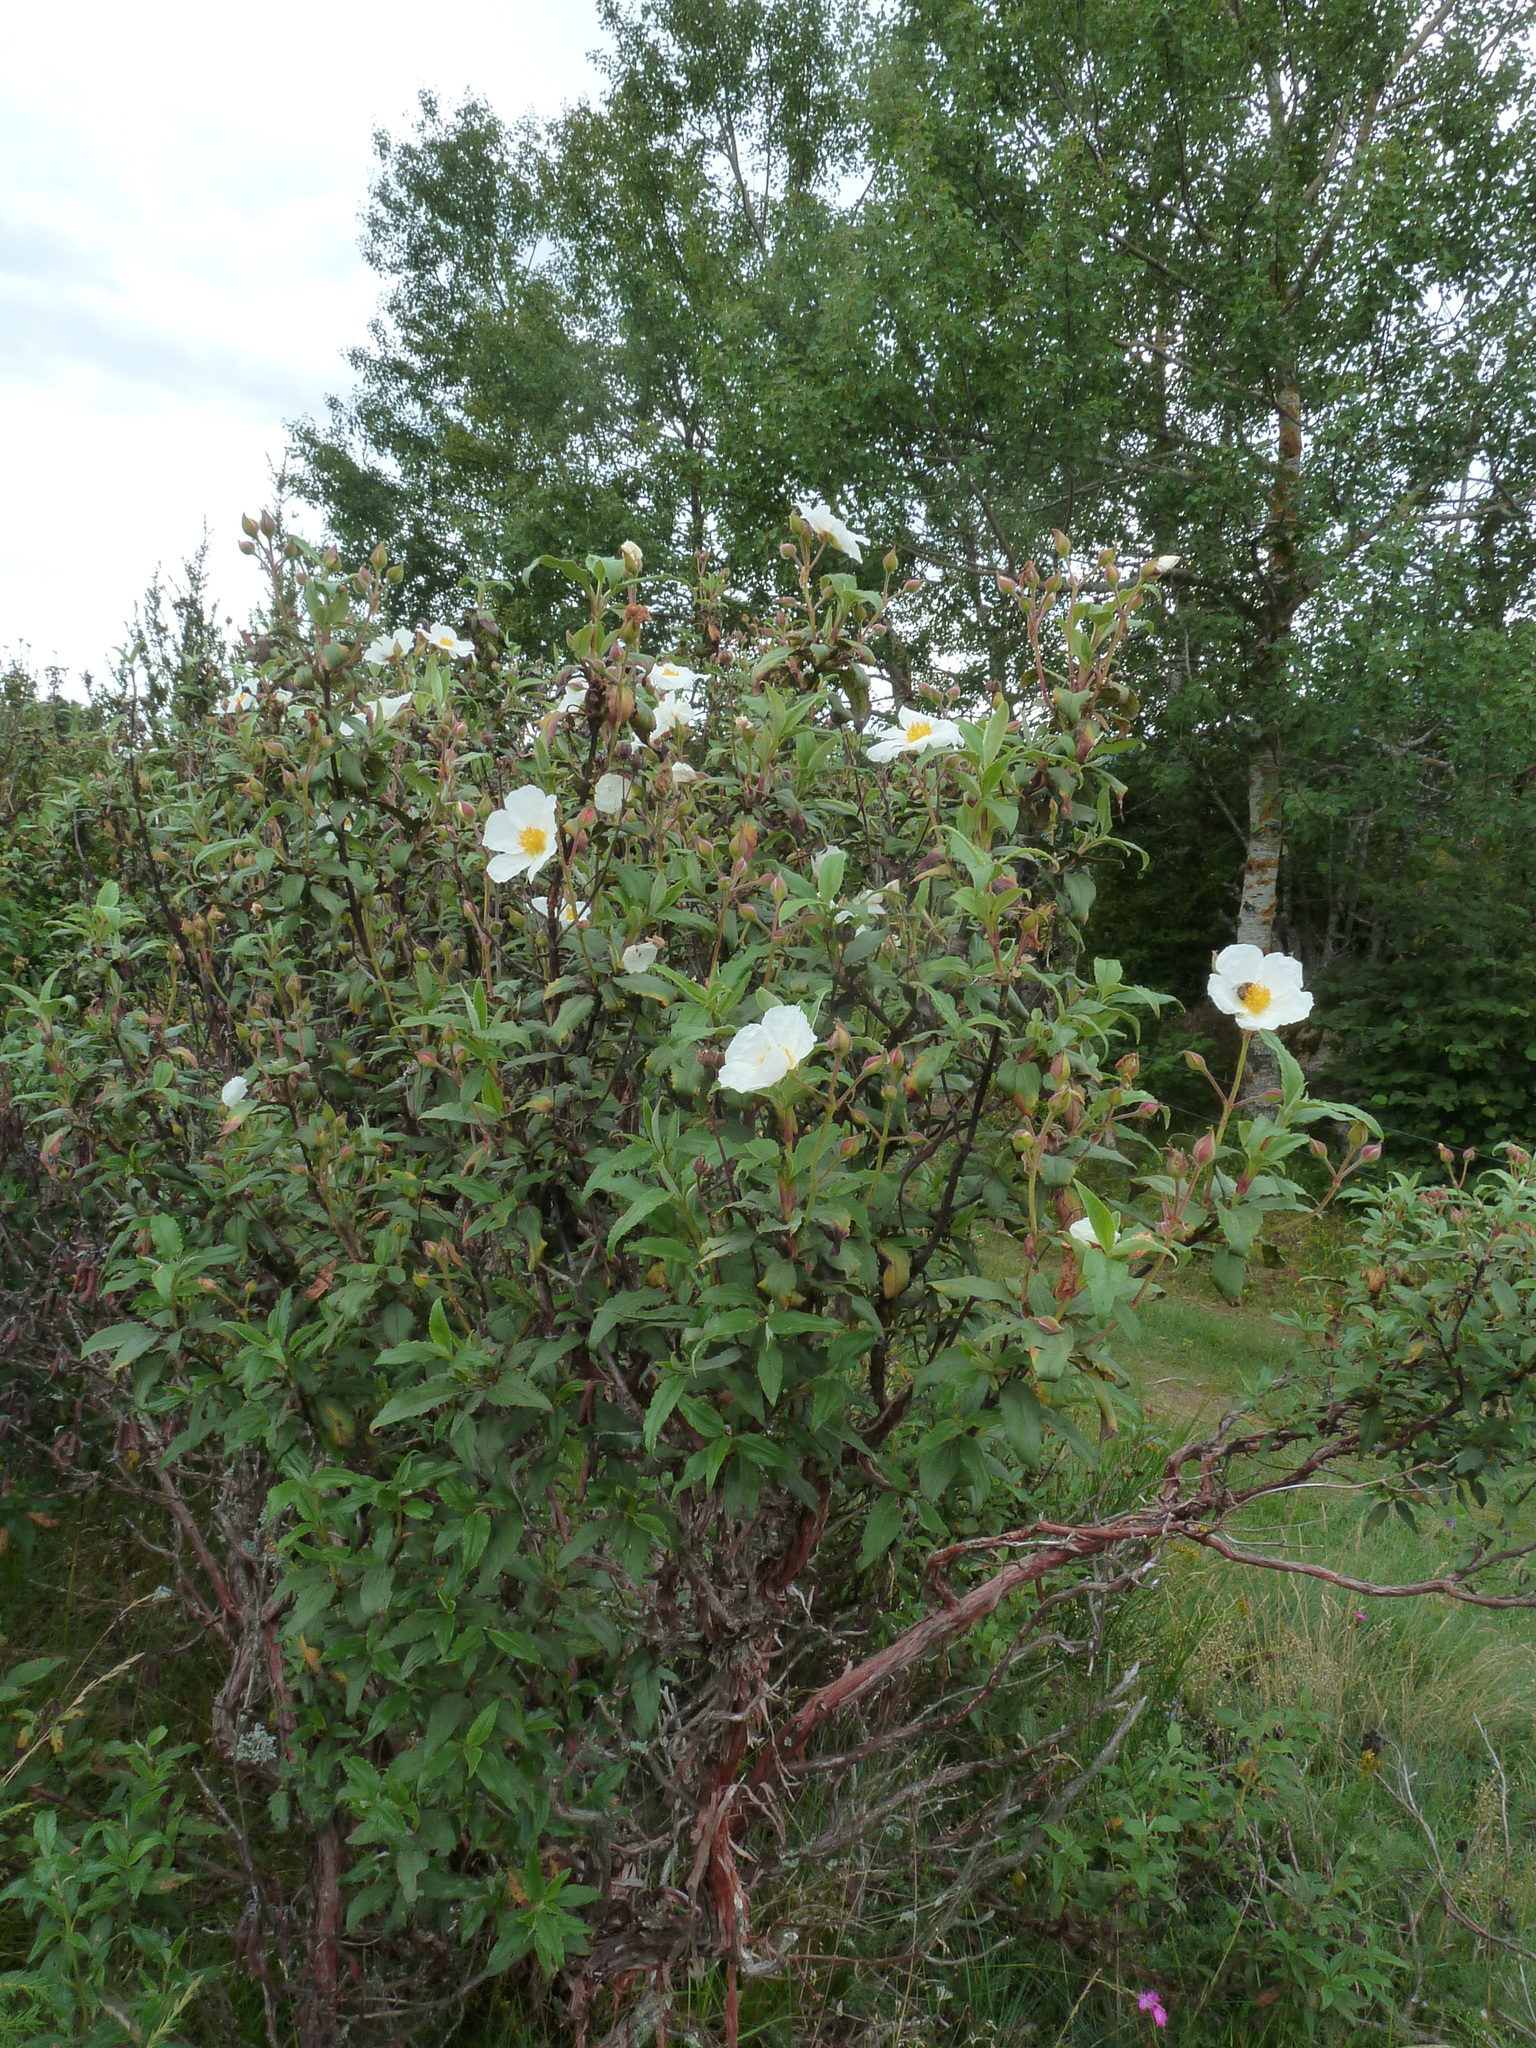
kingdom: Plantae
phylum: Tracheophyta
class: Magnoliopsida
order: Malvales
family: Cistaceae
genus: Cistus
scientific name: Cistus laurifolius
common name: Laurel-leaved cistus
